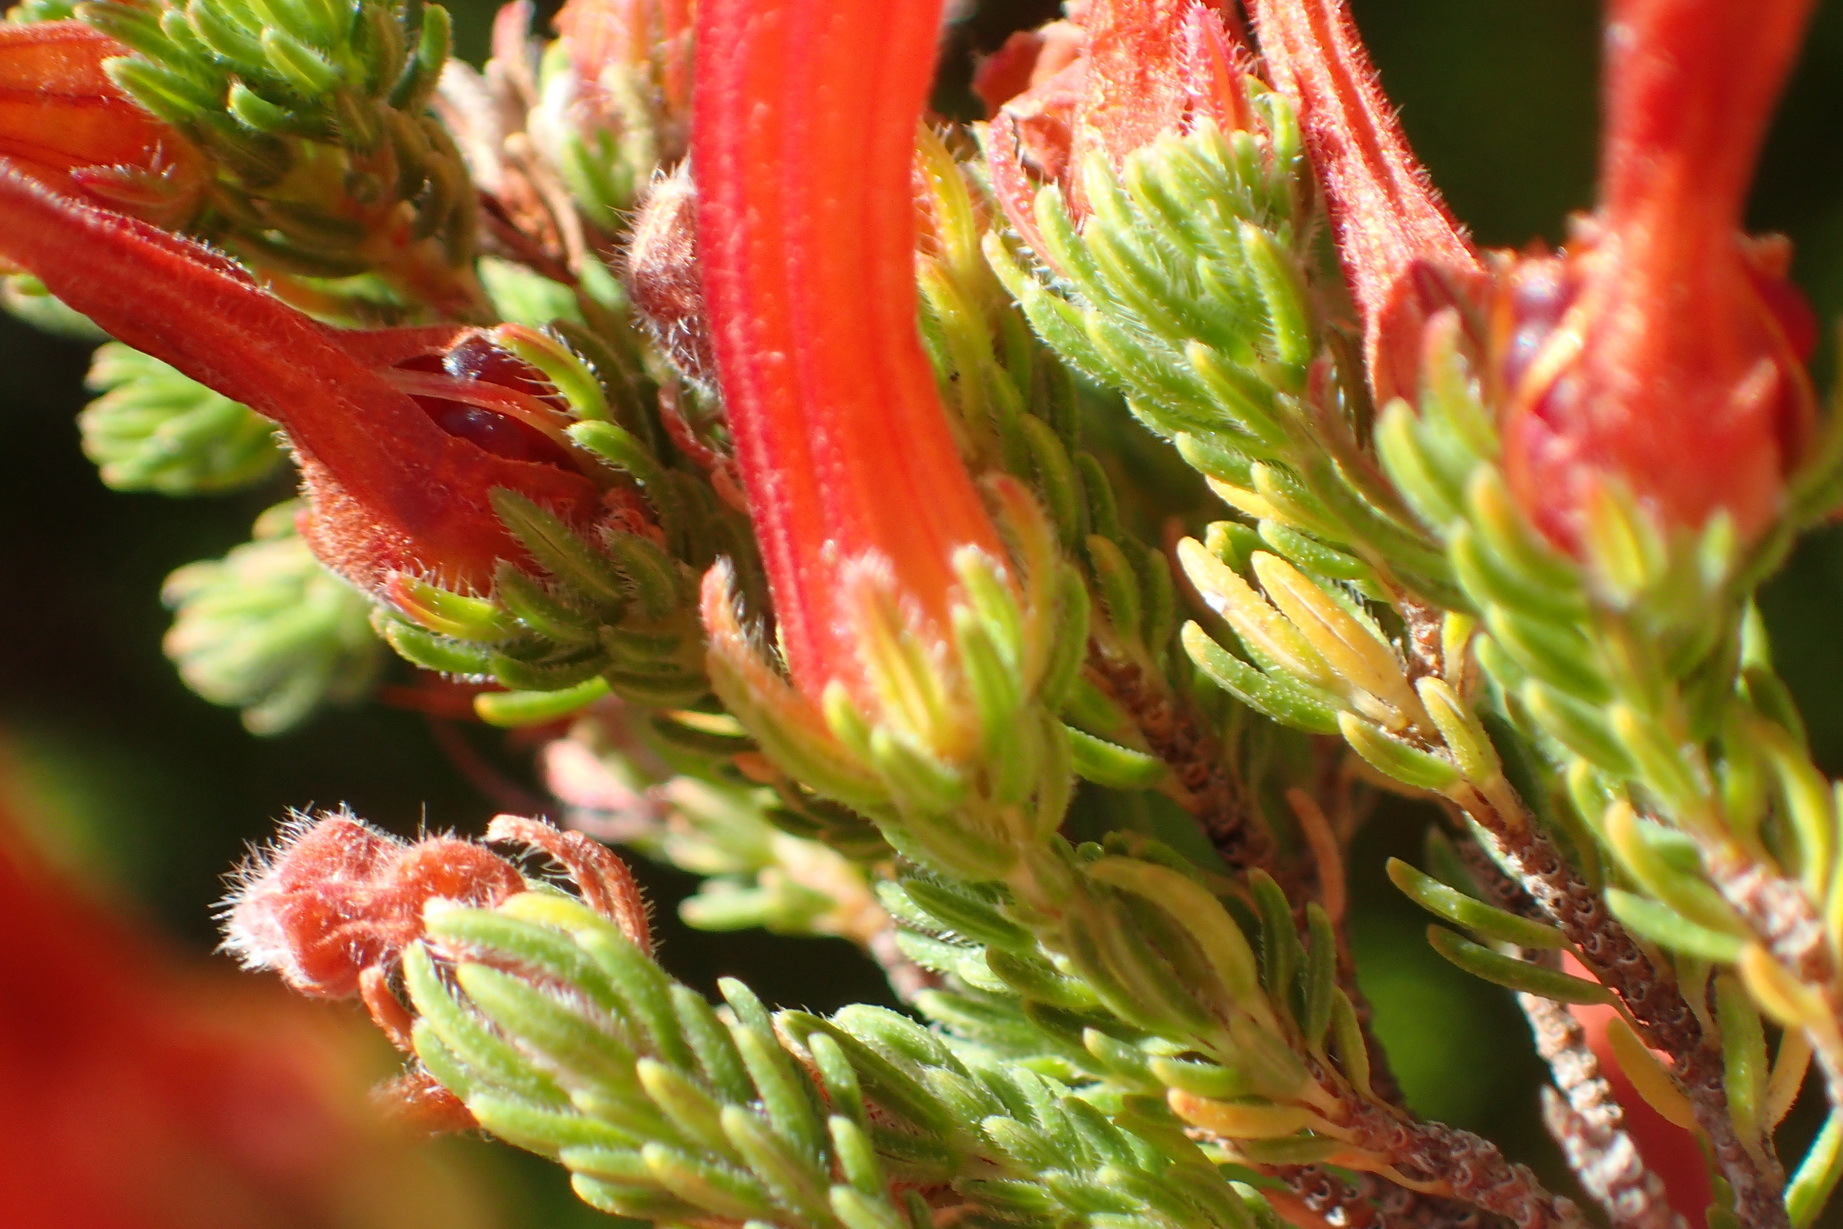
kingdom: Plantae
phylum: Tracheophyta
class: Magnoliopsida
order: Ericales
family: Ericaceae
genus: Erica
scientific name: Erica curviflora
